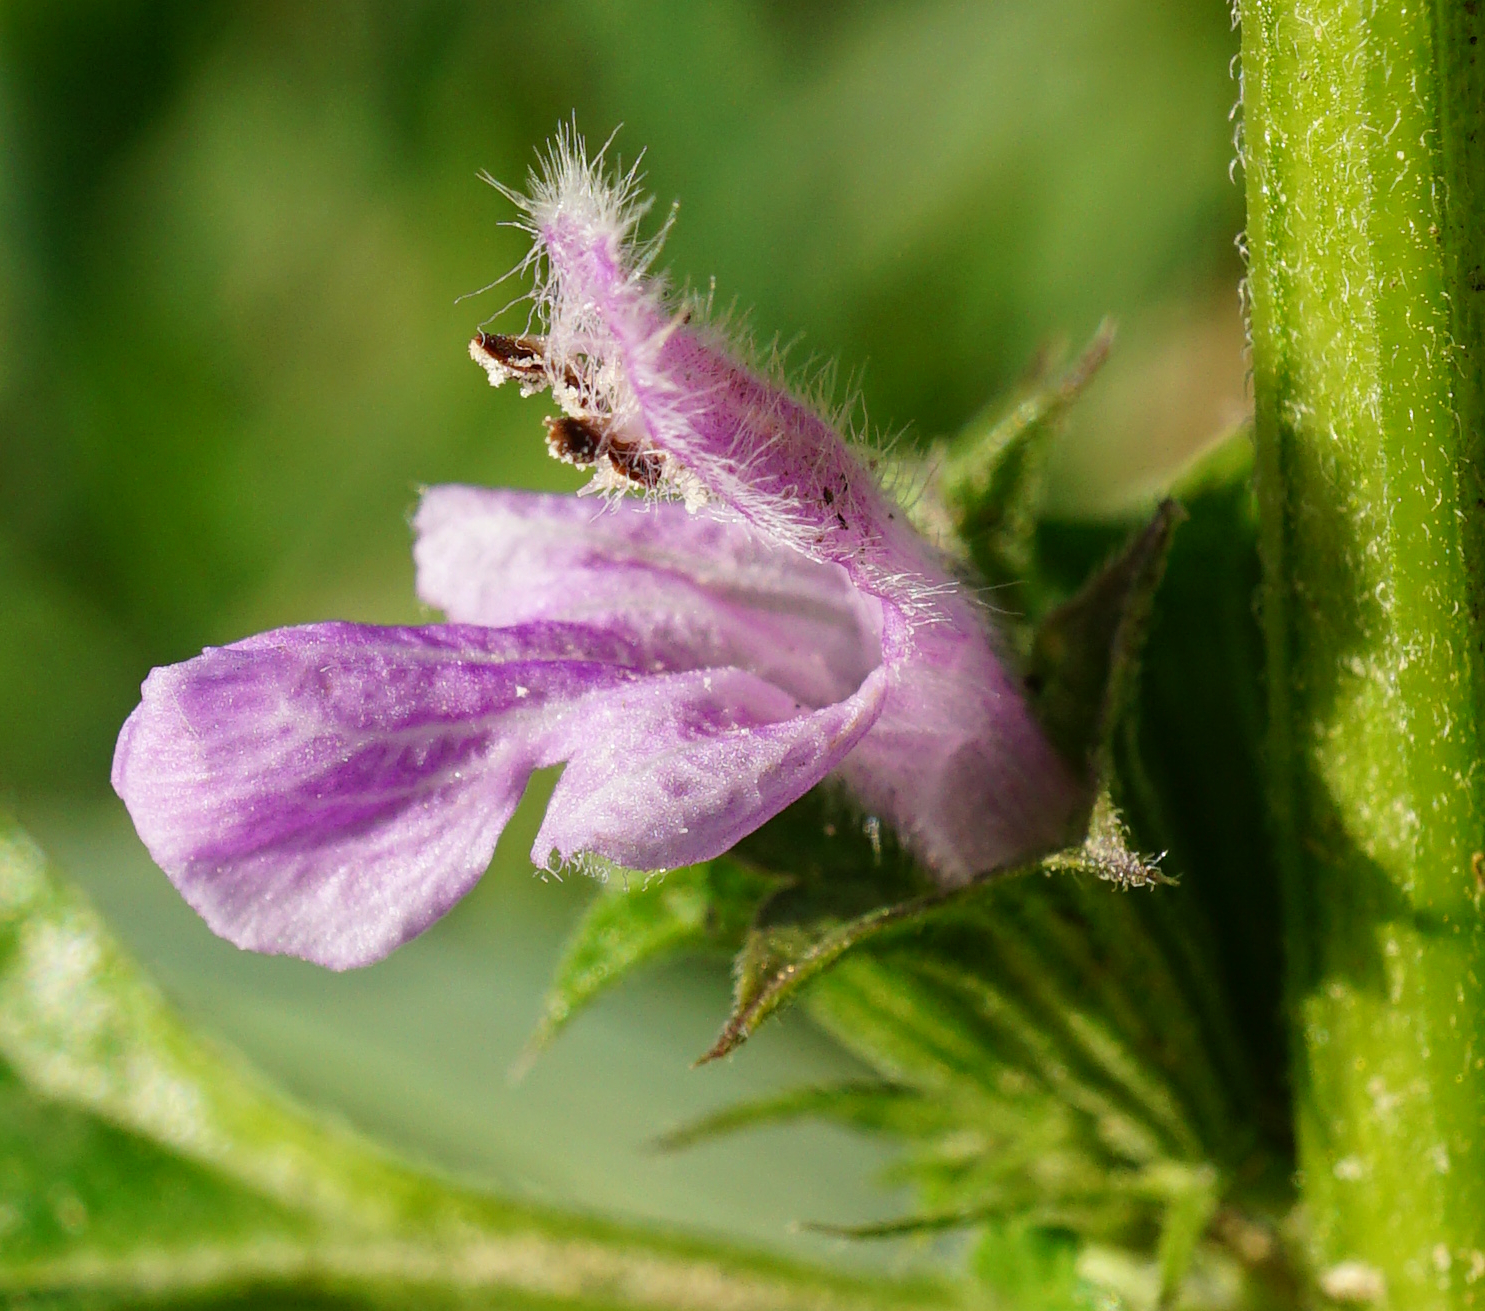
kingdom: Plantae
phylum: Tracheophyta
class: Magnoliopsida
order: Lamiales
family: Lamiaceae
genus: Ballota
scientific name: Ballota nigra
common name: Black horehound
